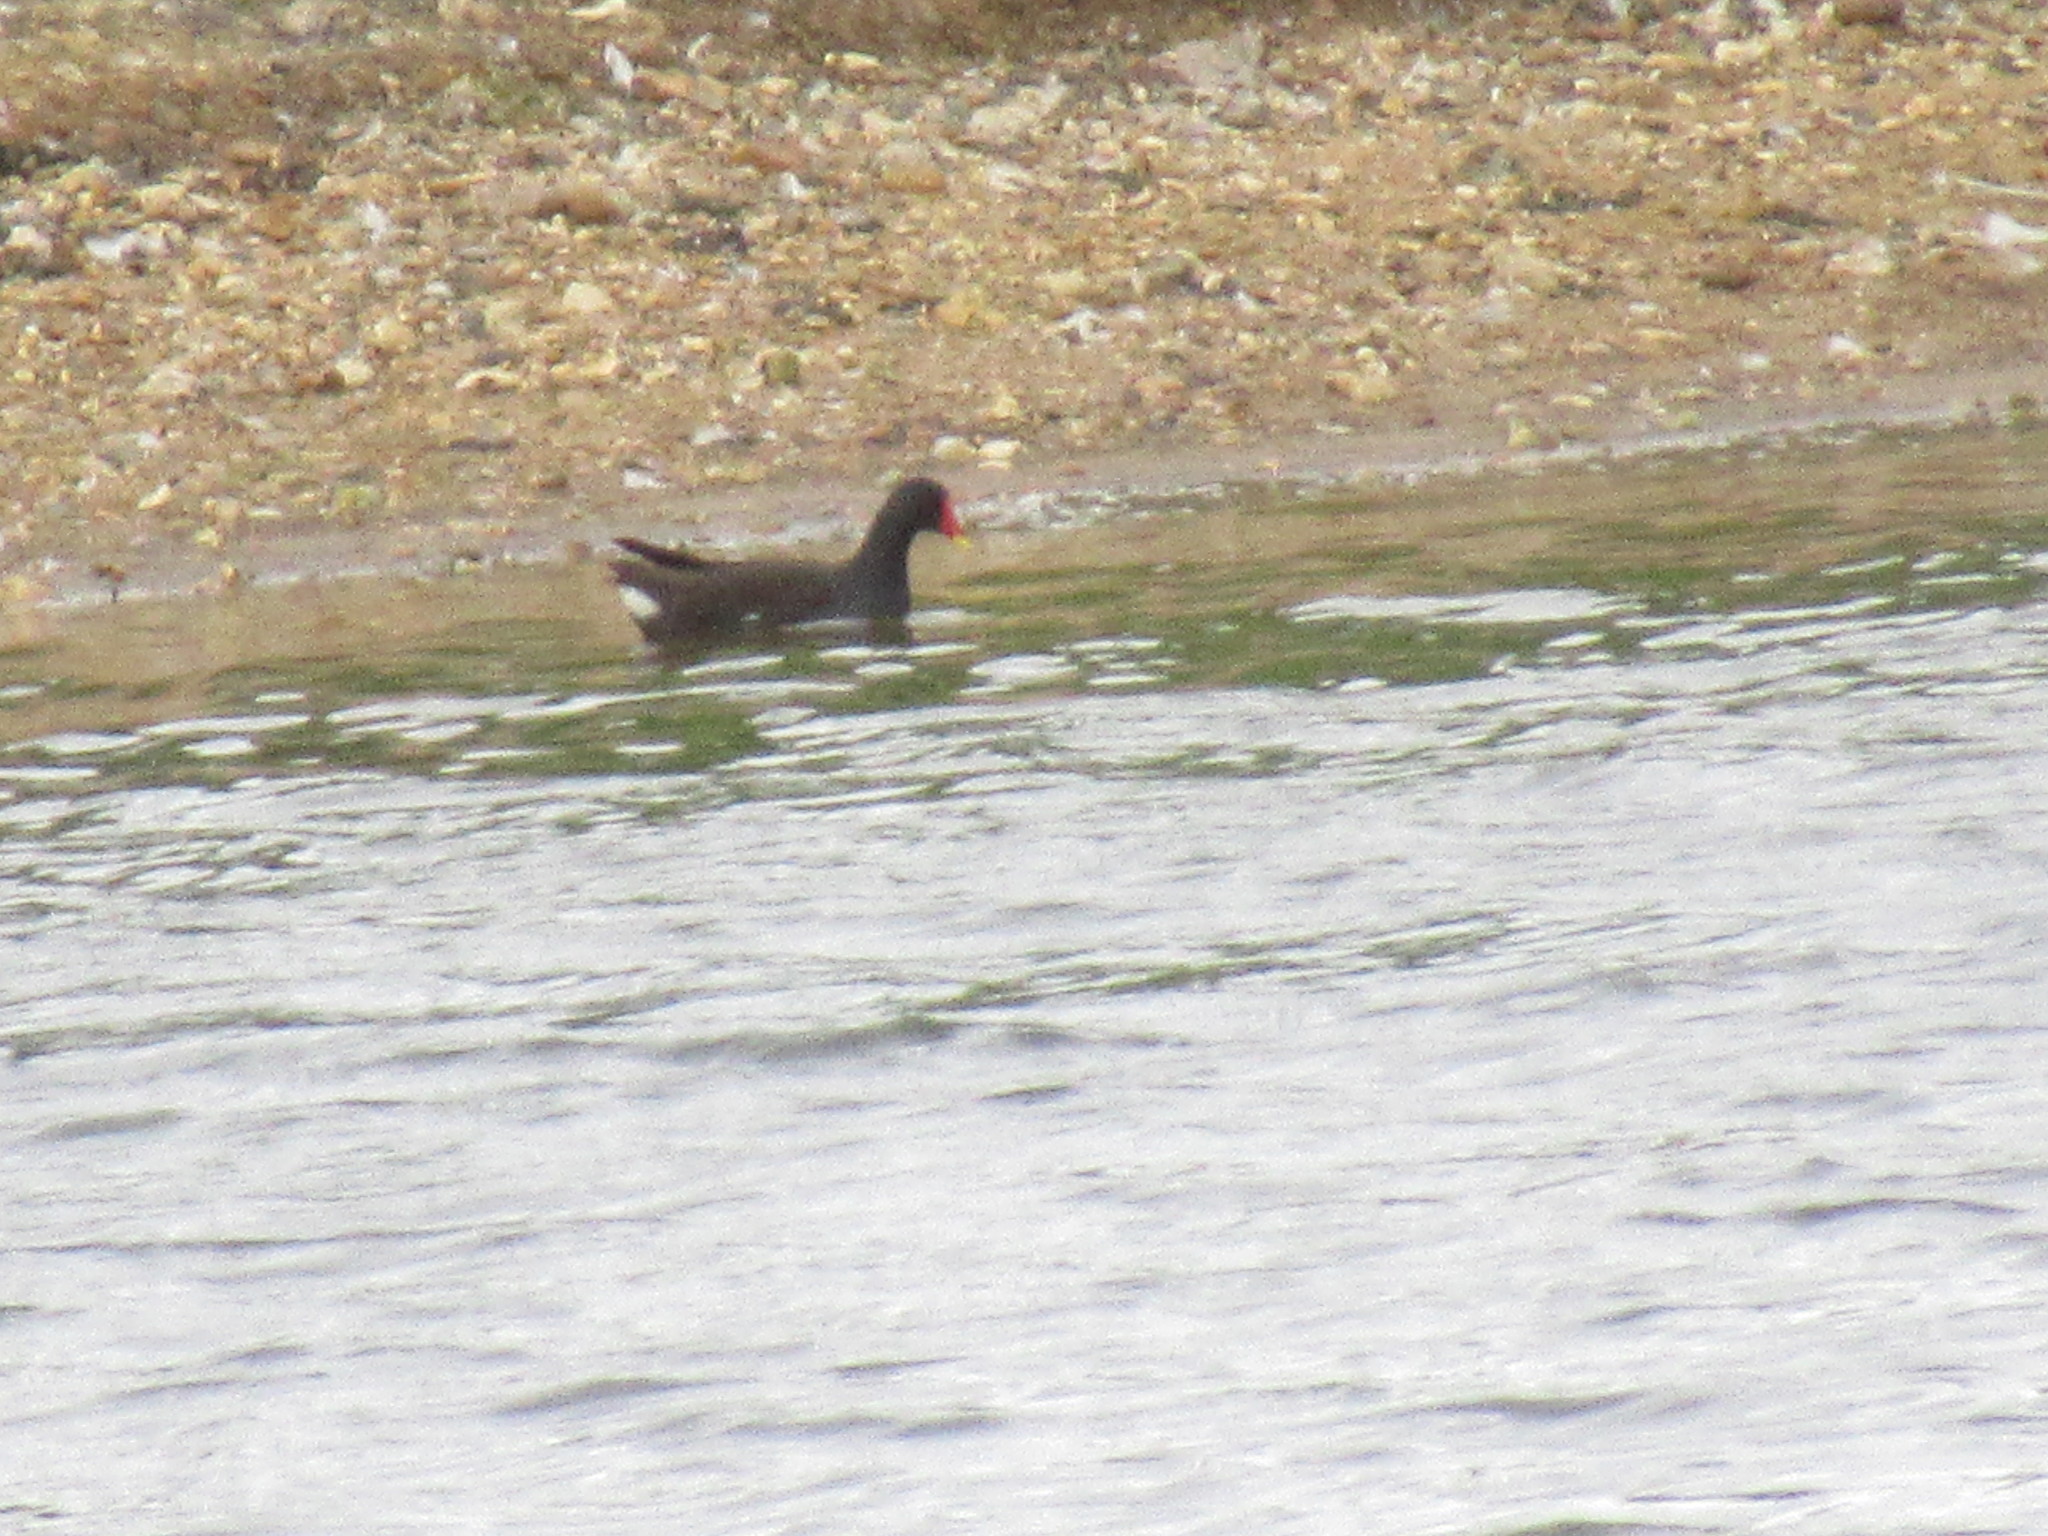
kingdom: Animalia
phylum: Chordata
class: Aves
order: Gruiformes
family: Rallidae
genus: Gallinula
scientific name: Gallinula chloropus
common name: Common moorhen
